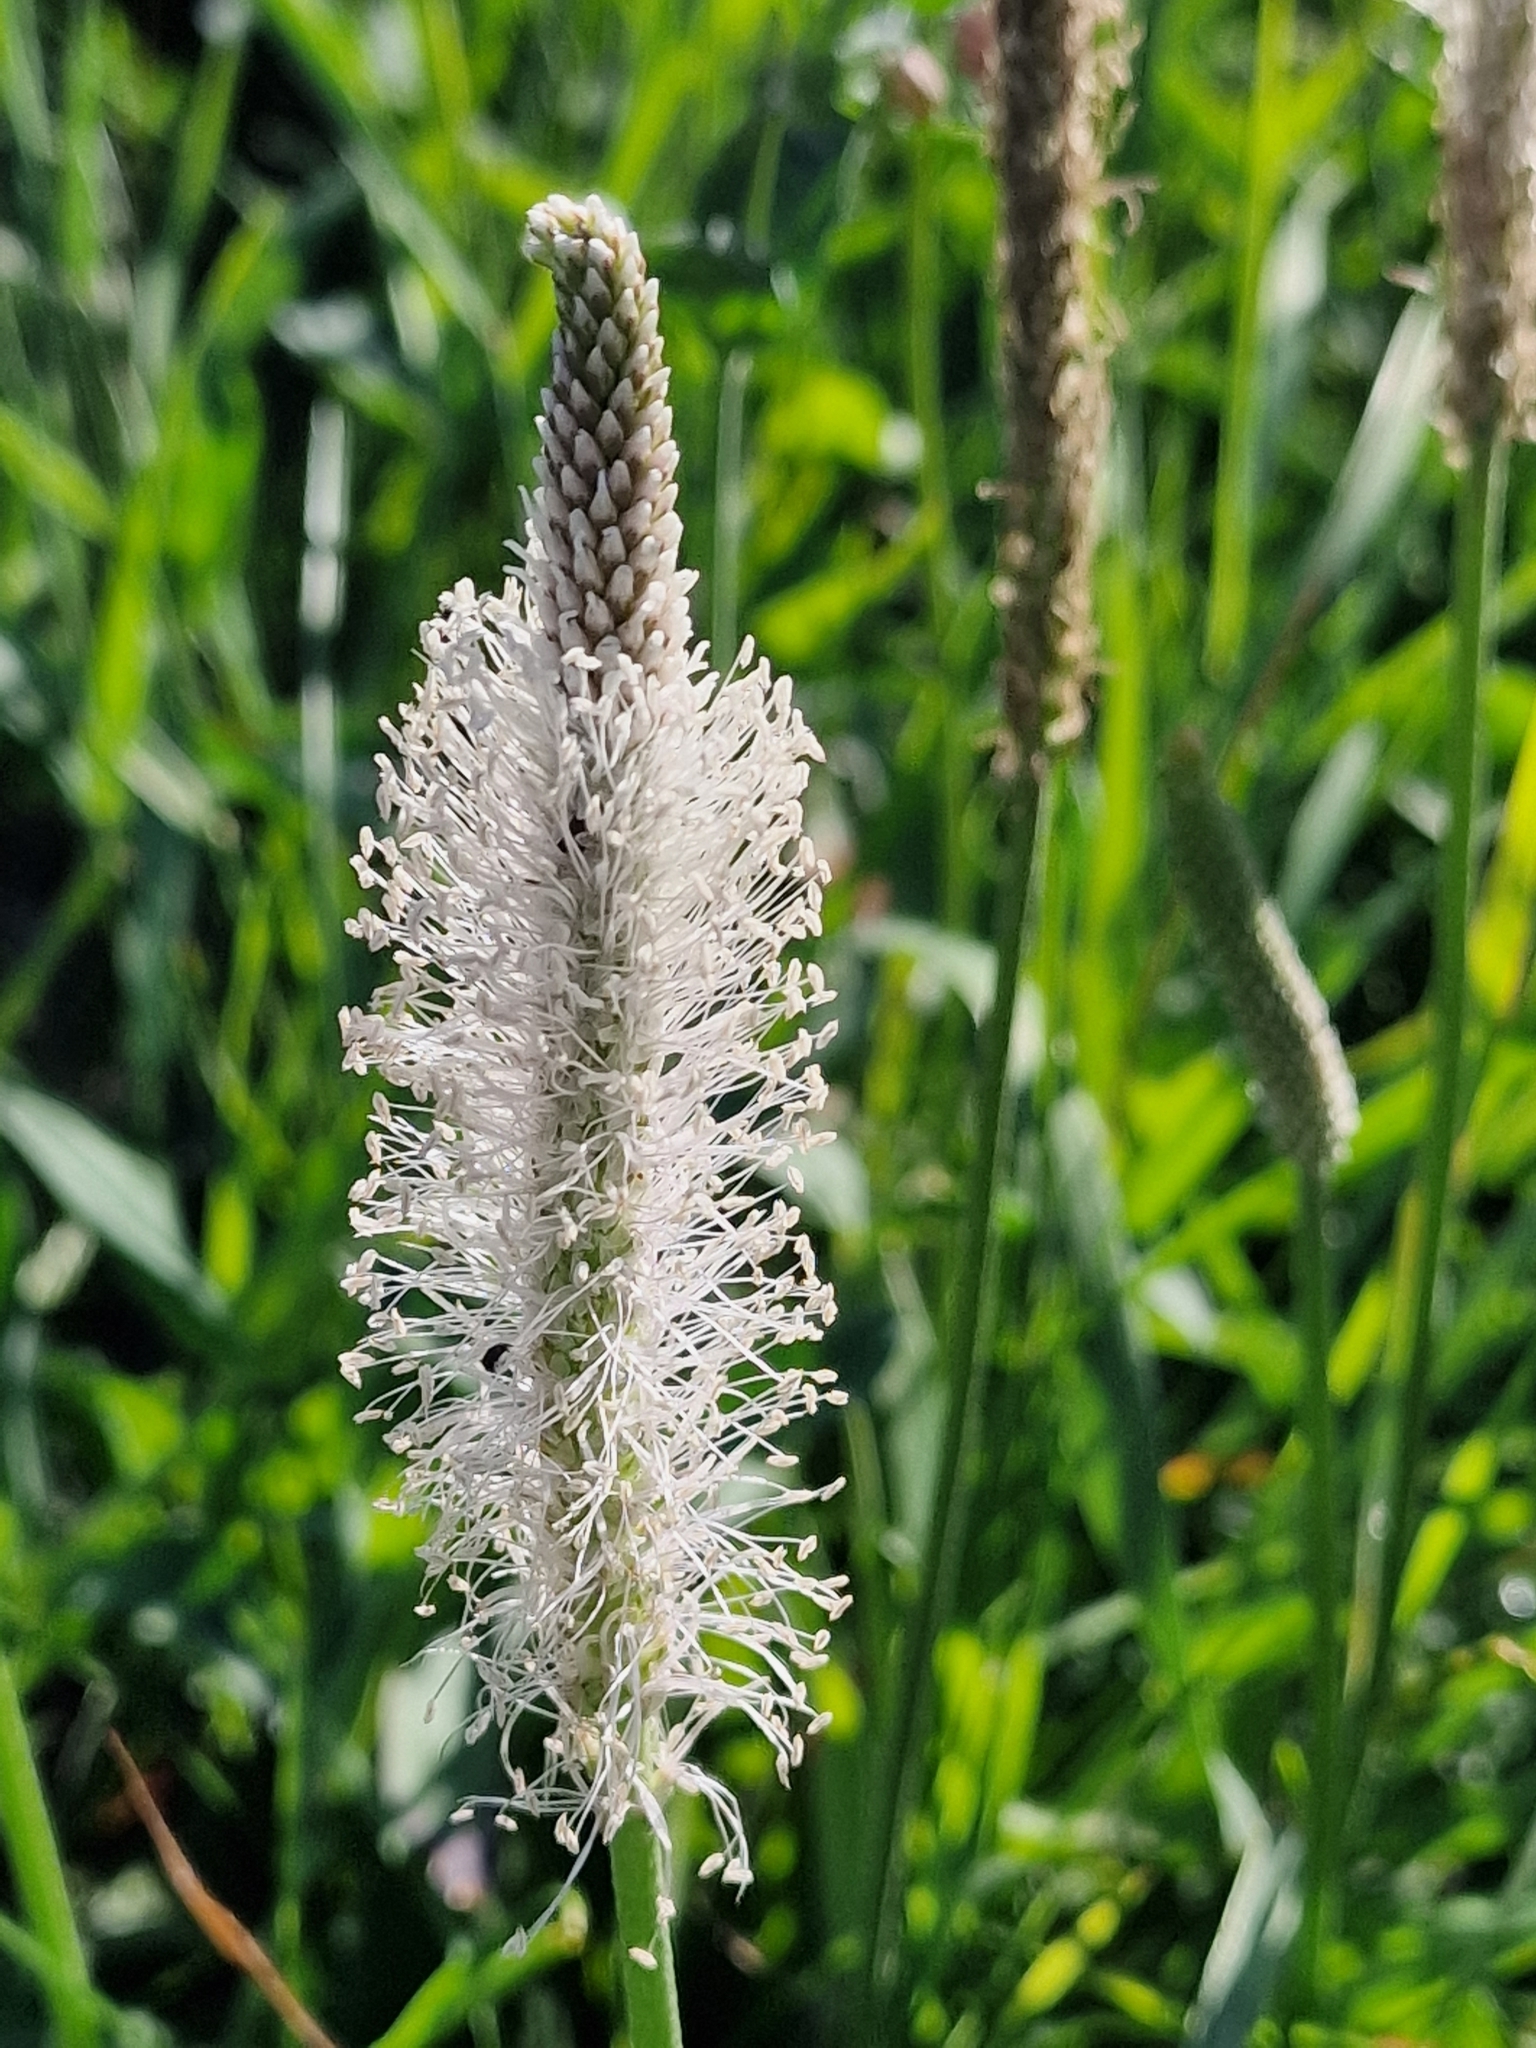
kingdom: Plantae
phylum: Tracheophyta
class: Magnoliopsida
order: Lamiales
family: Plantaginaceae
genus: Plantago
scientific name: Plantago media
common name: Hoary plantain
